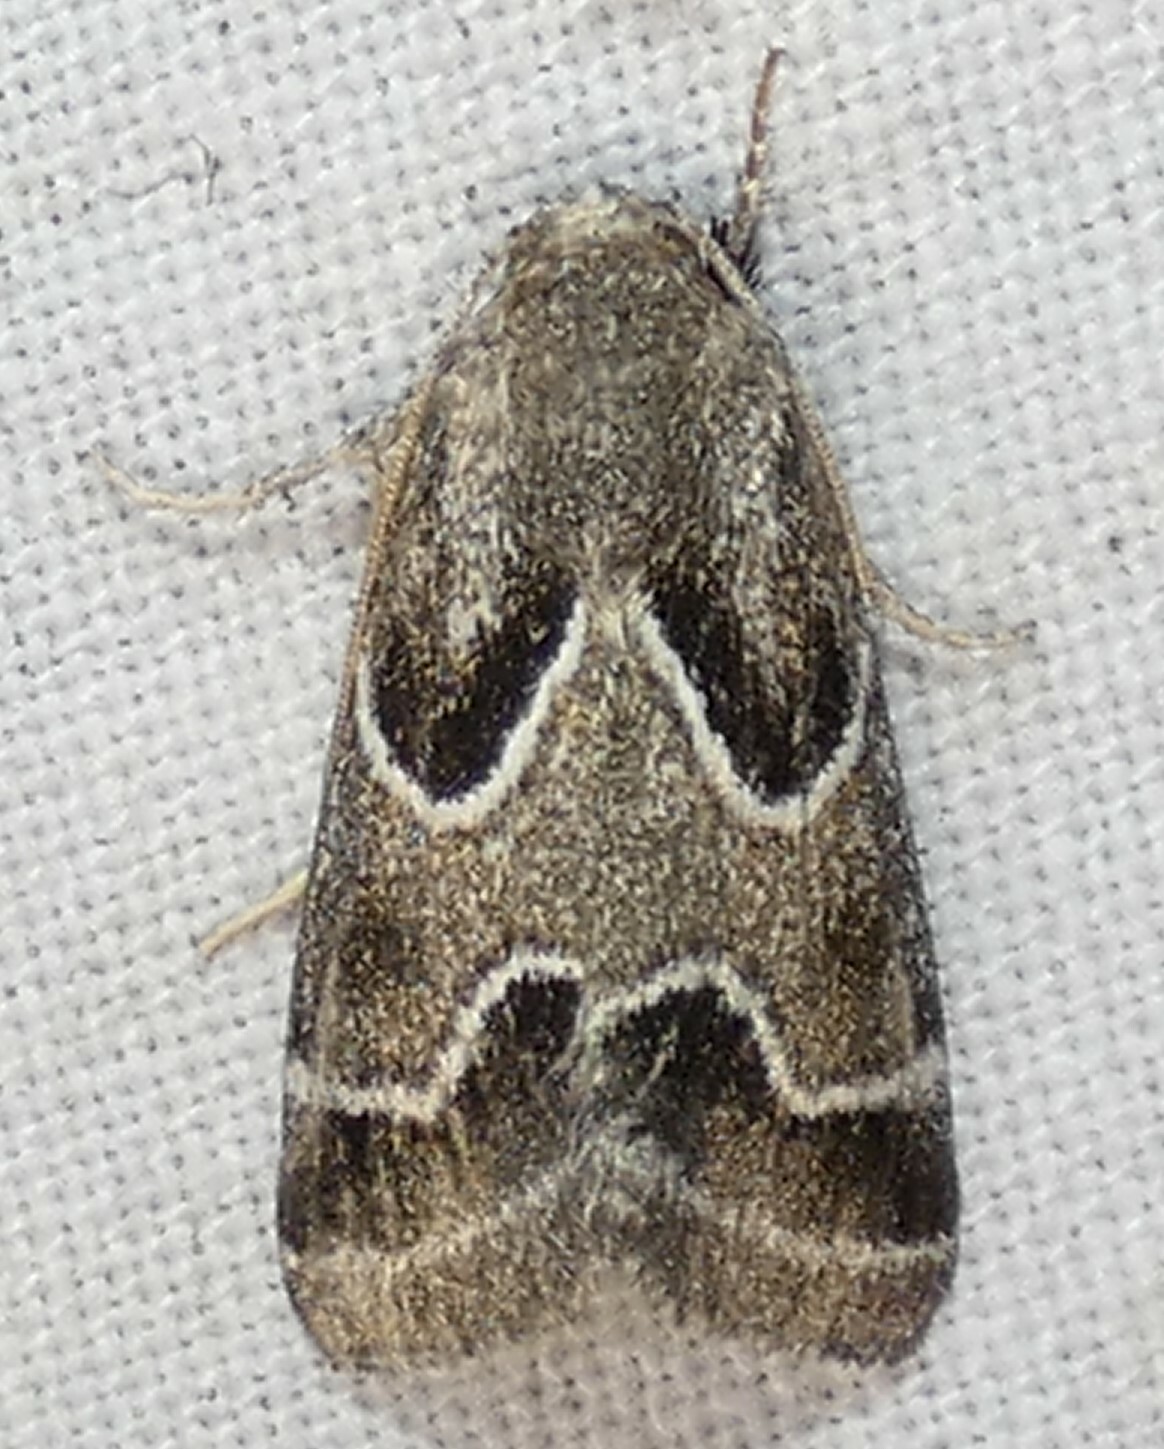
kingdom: Animalia
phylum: Arthropoda
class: Insecta
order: Lepidoptera
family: Noctuidae
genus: Schinia
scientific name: Schinia rivulosa
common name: Scarce meal-moth
